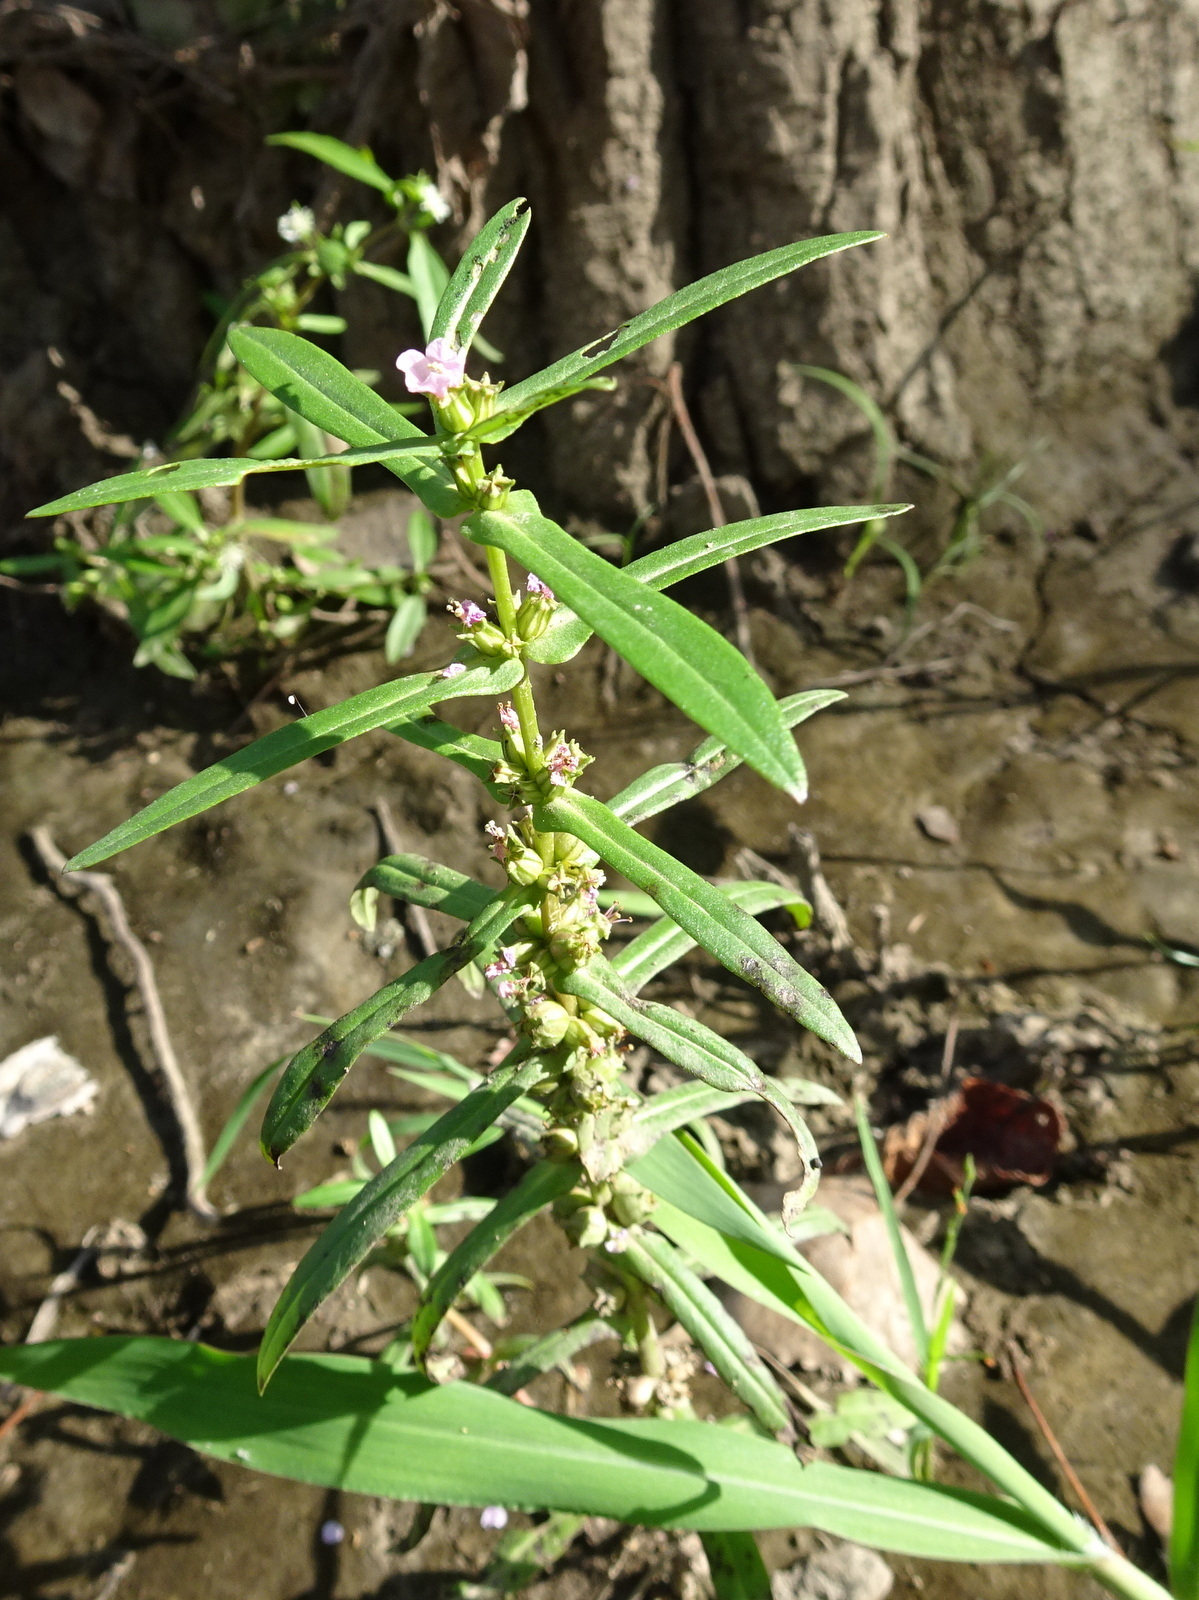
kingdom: Plantae
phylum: Tracheophyta
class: Magnoliopsida
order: Myrtales
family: Lythraceae
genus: Ammannia
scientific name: Ammannia coccinea
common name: Valley redstem
